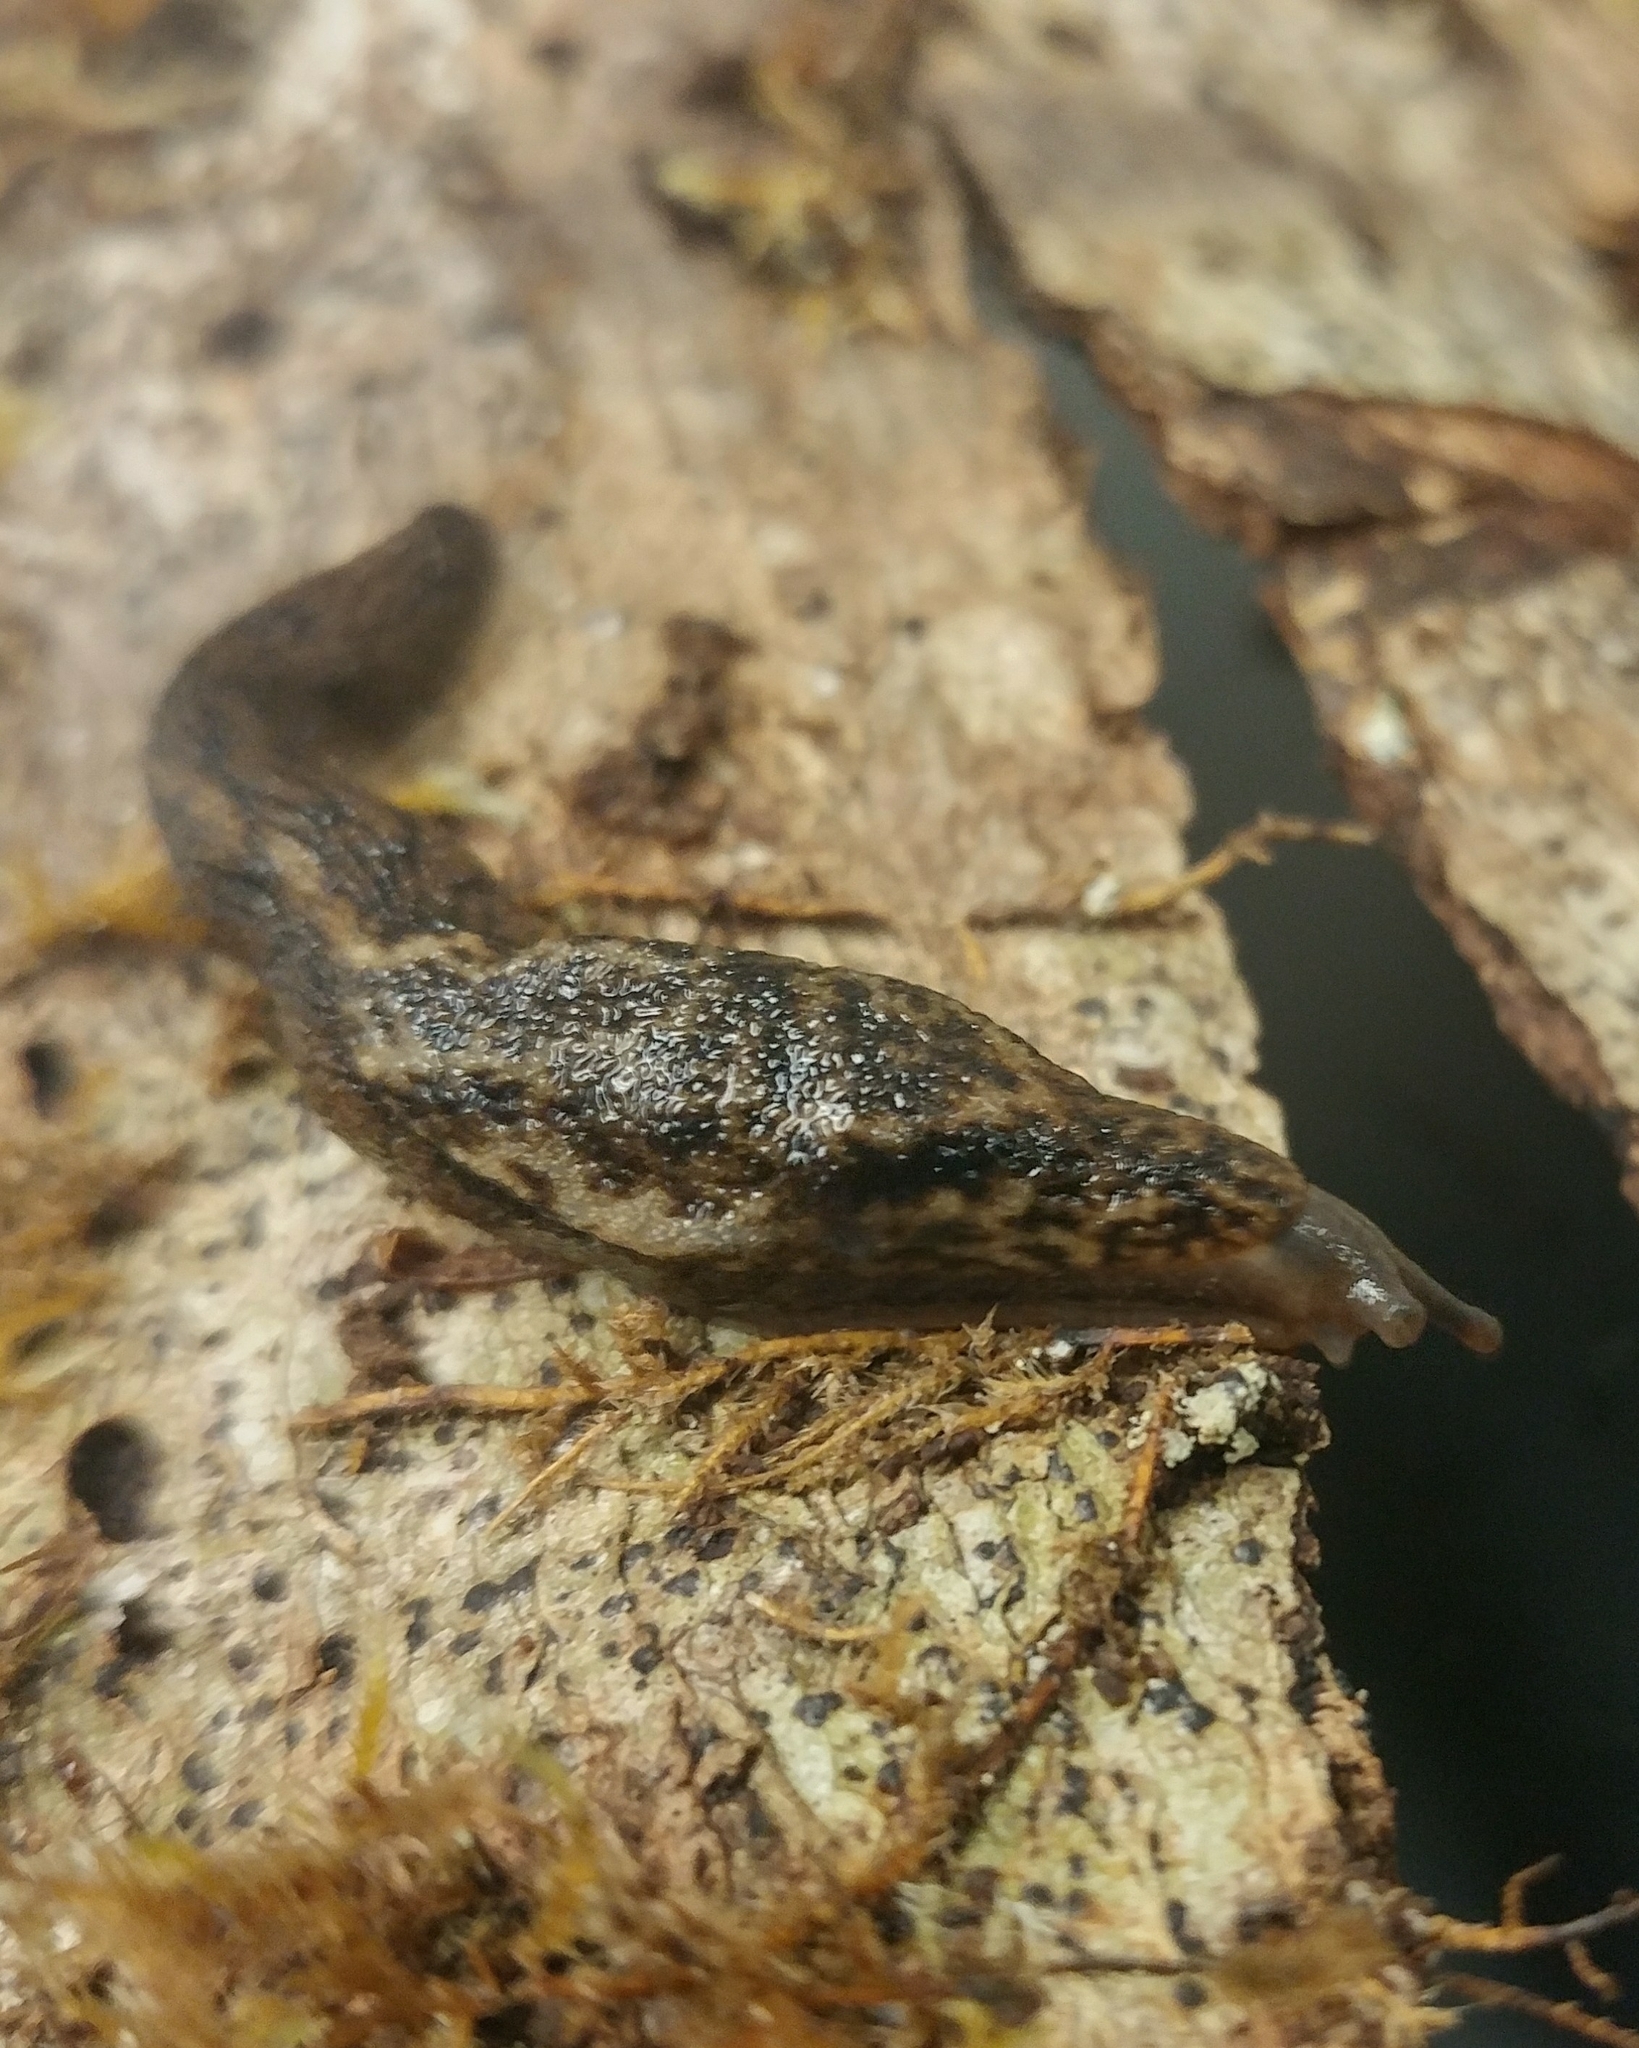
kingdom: Animalia
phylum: Mollusca
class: Gastropoda
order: Stylommatophora
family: Ariolimacidae
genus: Prophysaon
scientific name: Prophysaon andersonii
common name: Reticulate taildropper
